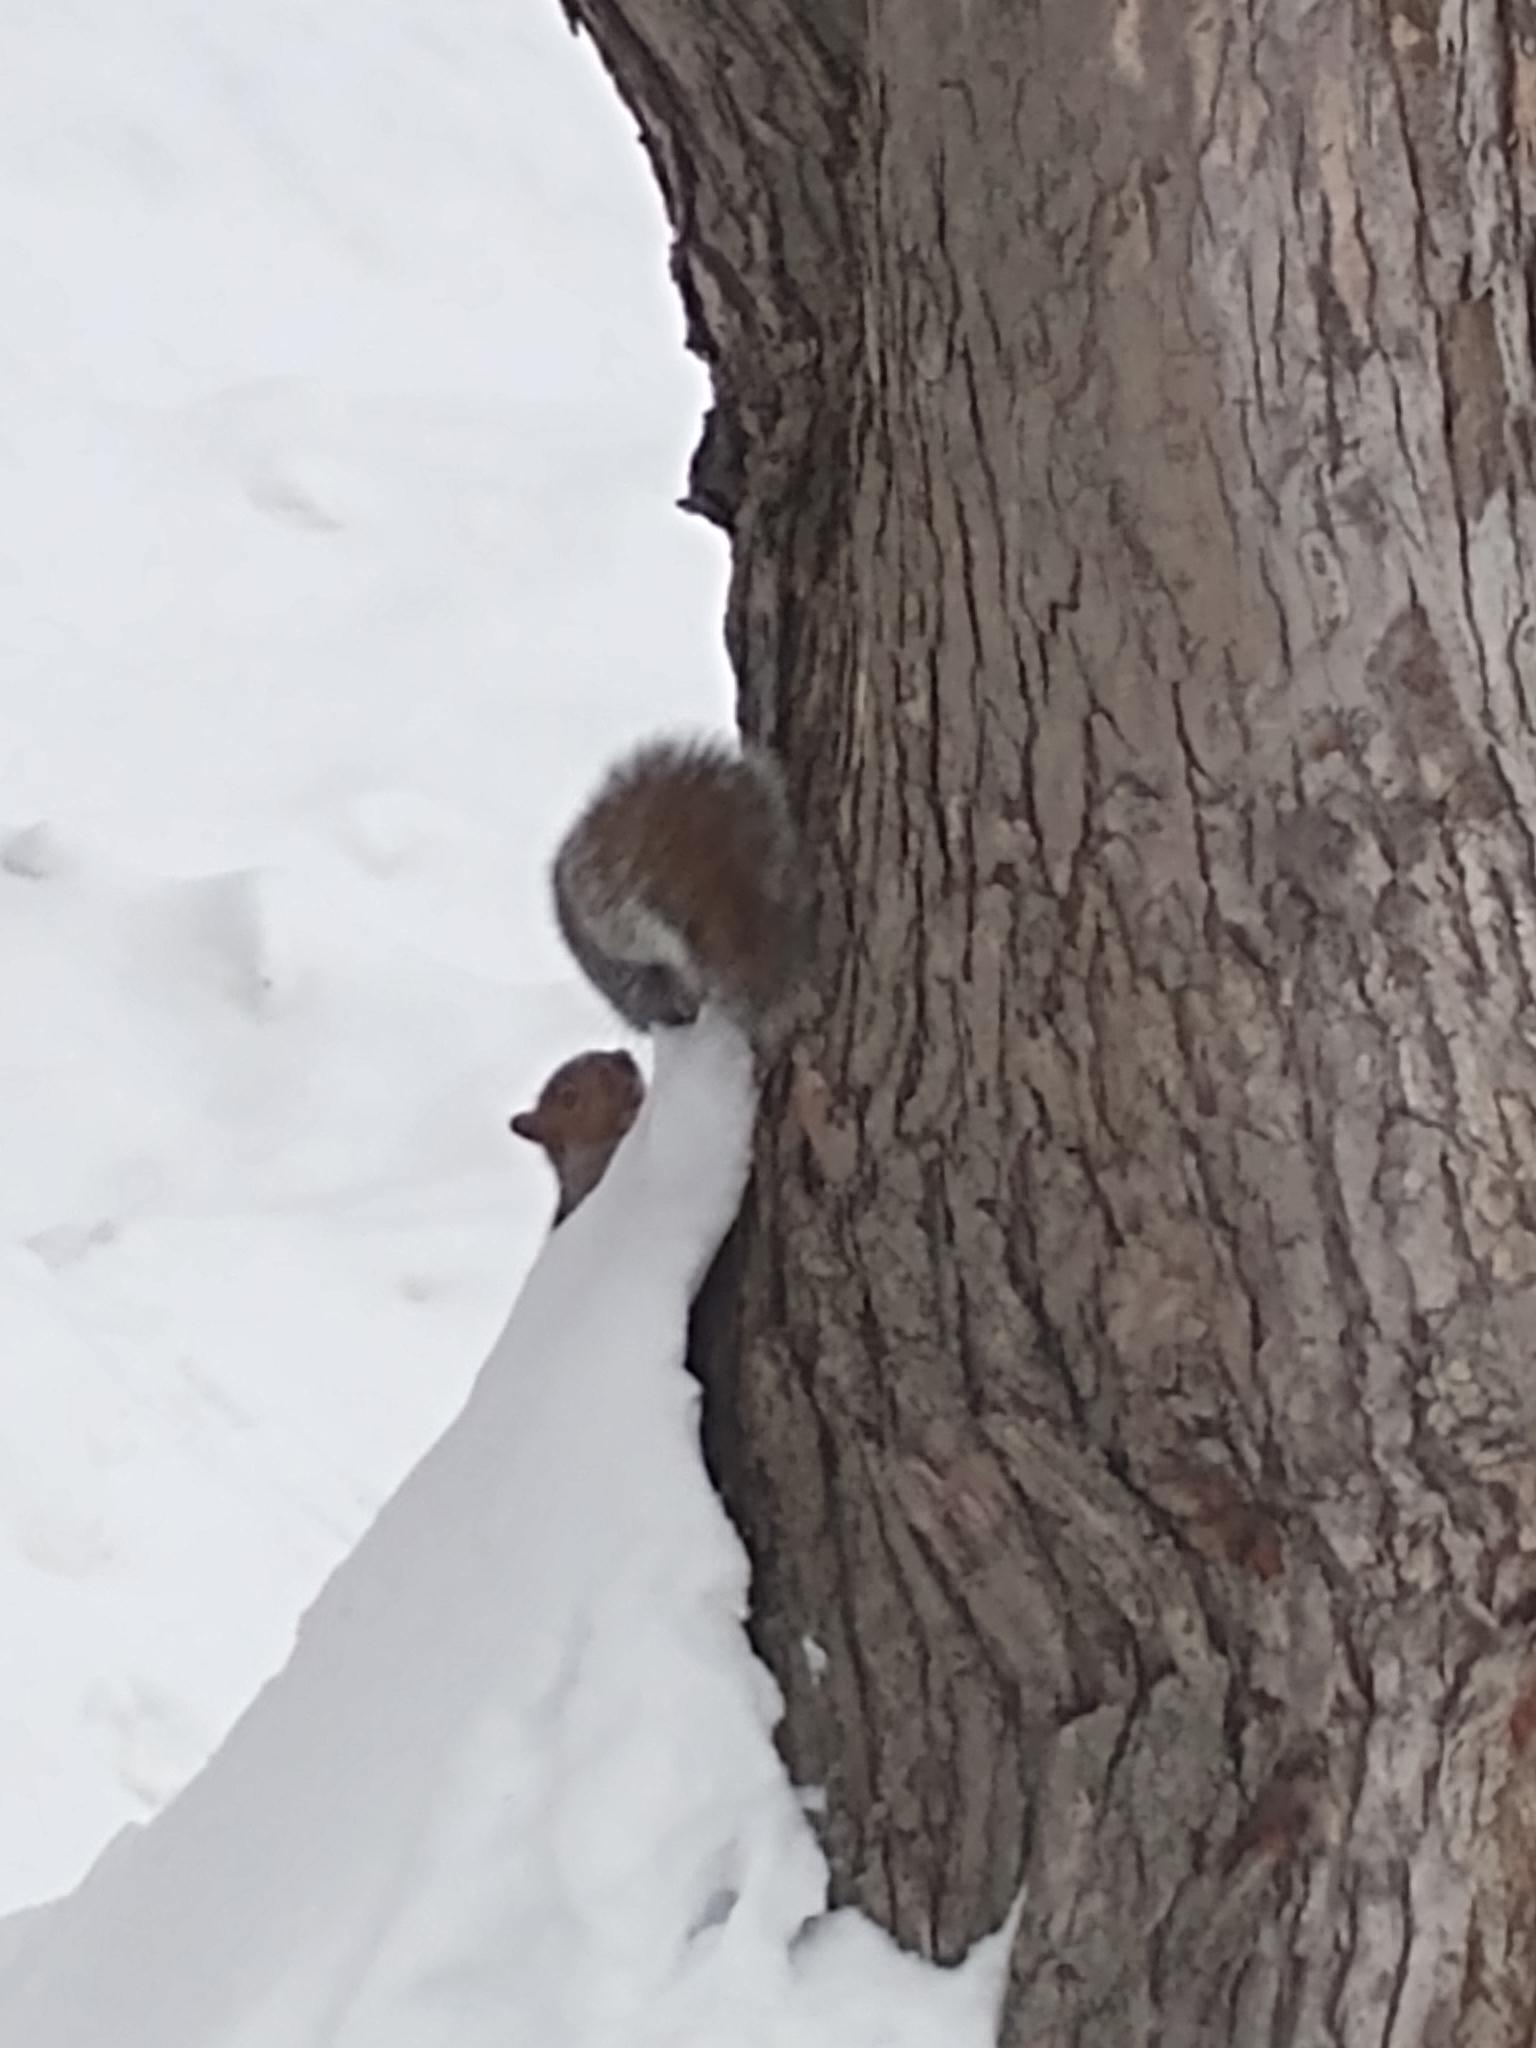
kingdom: Animalia
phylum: Chordata
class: Mammalia
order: Rodentia
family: Sciuridae
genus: Sciurus
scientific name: Sciurus carolinensis
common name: Eastern gray squirrel
